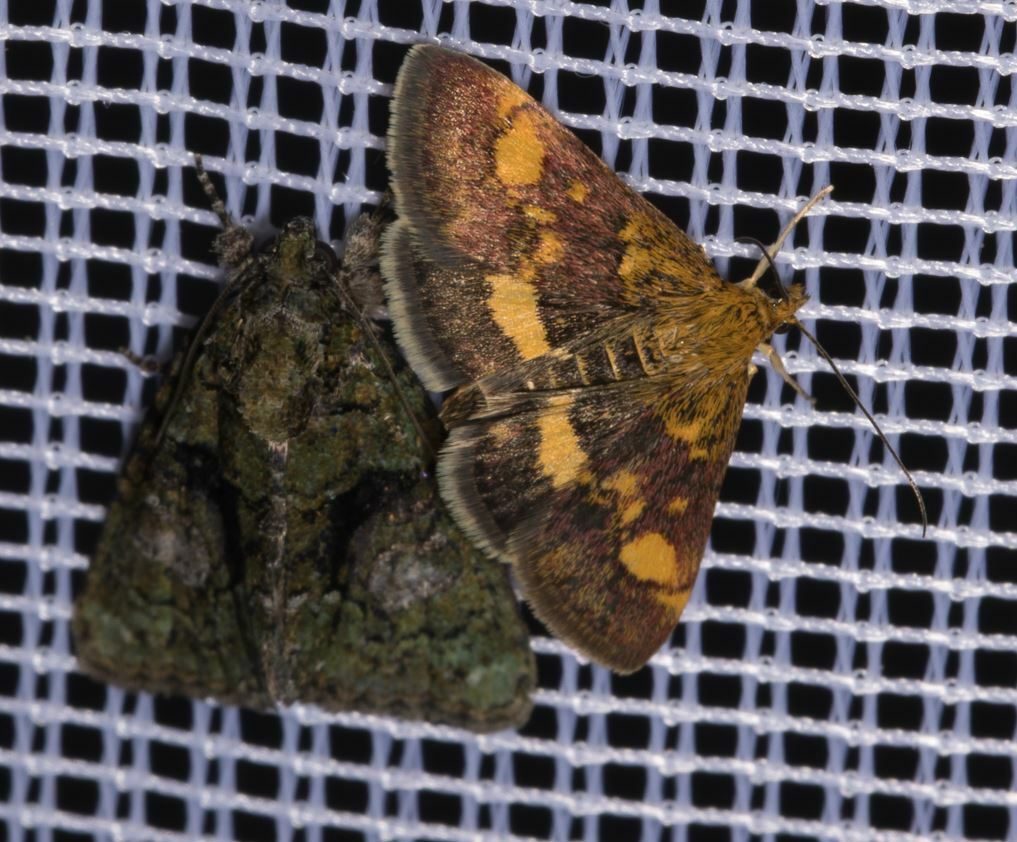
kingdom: Animalia
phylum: Arthropoda
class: Insecta
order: Lepidoptera
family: Noctuidae
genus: Cryphia
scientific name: Cryphia algae
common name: Tree-lichen beauty
